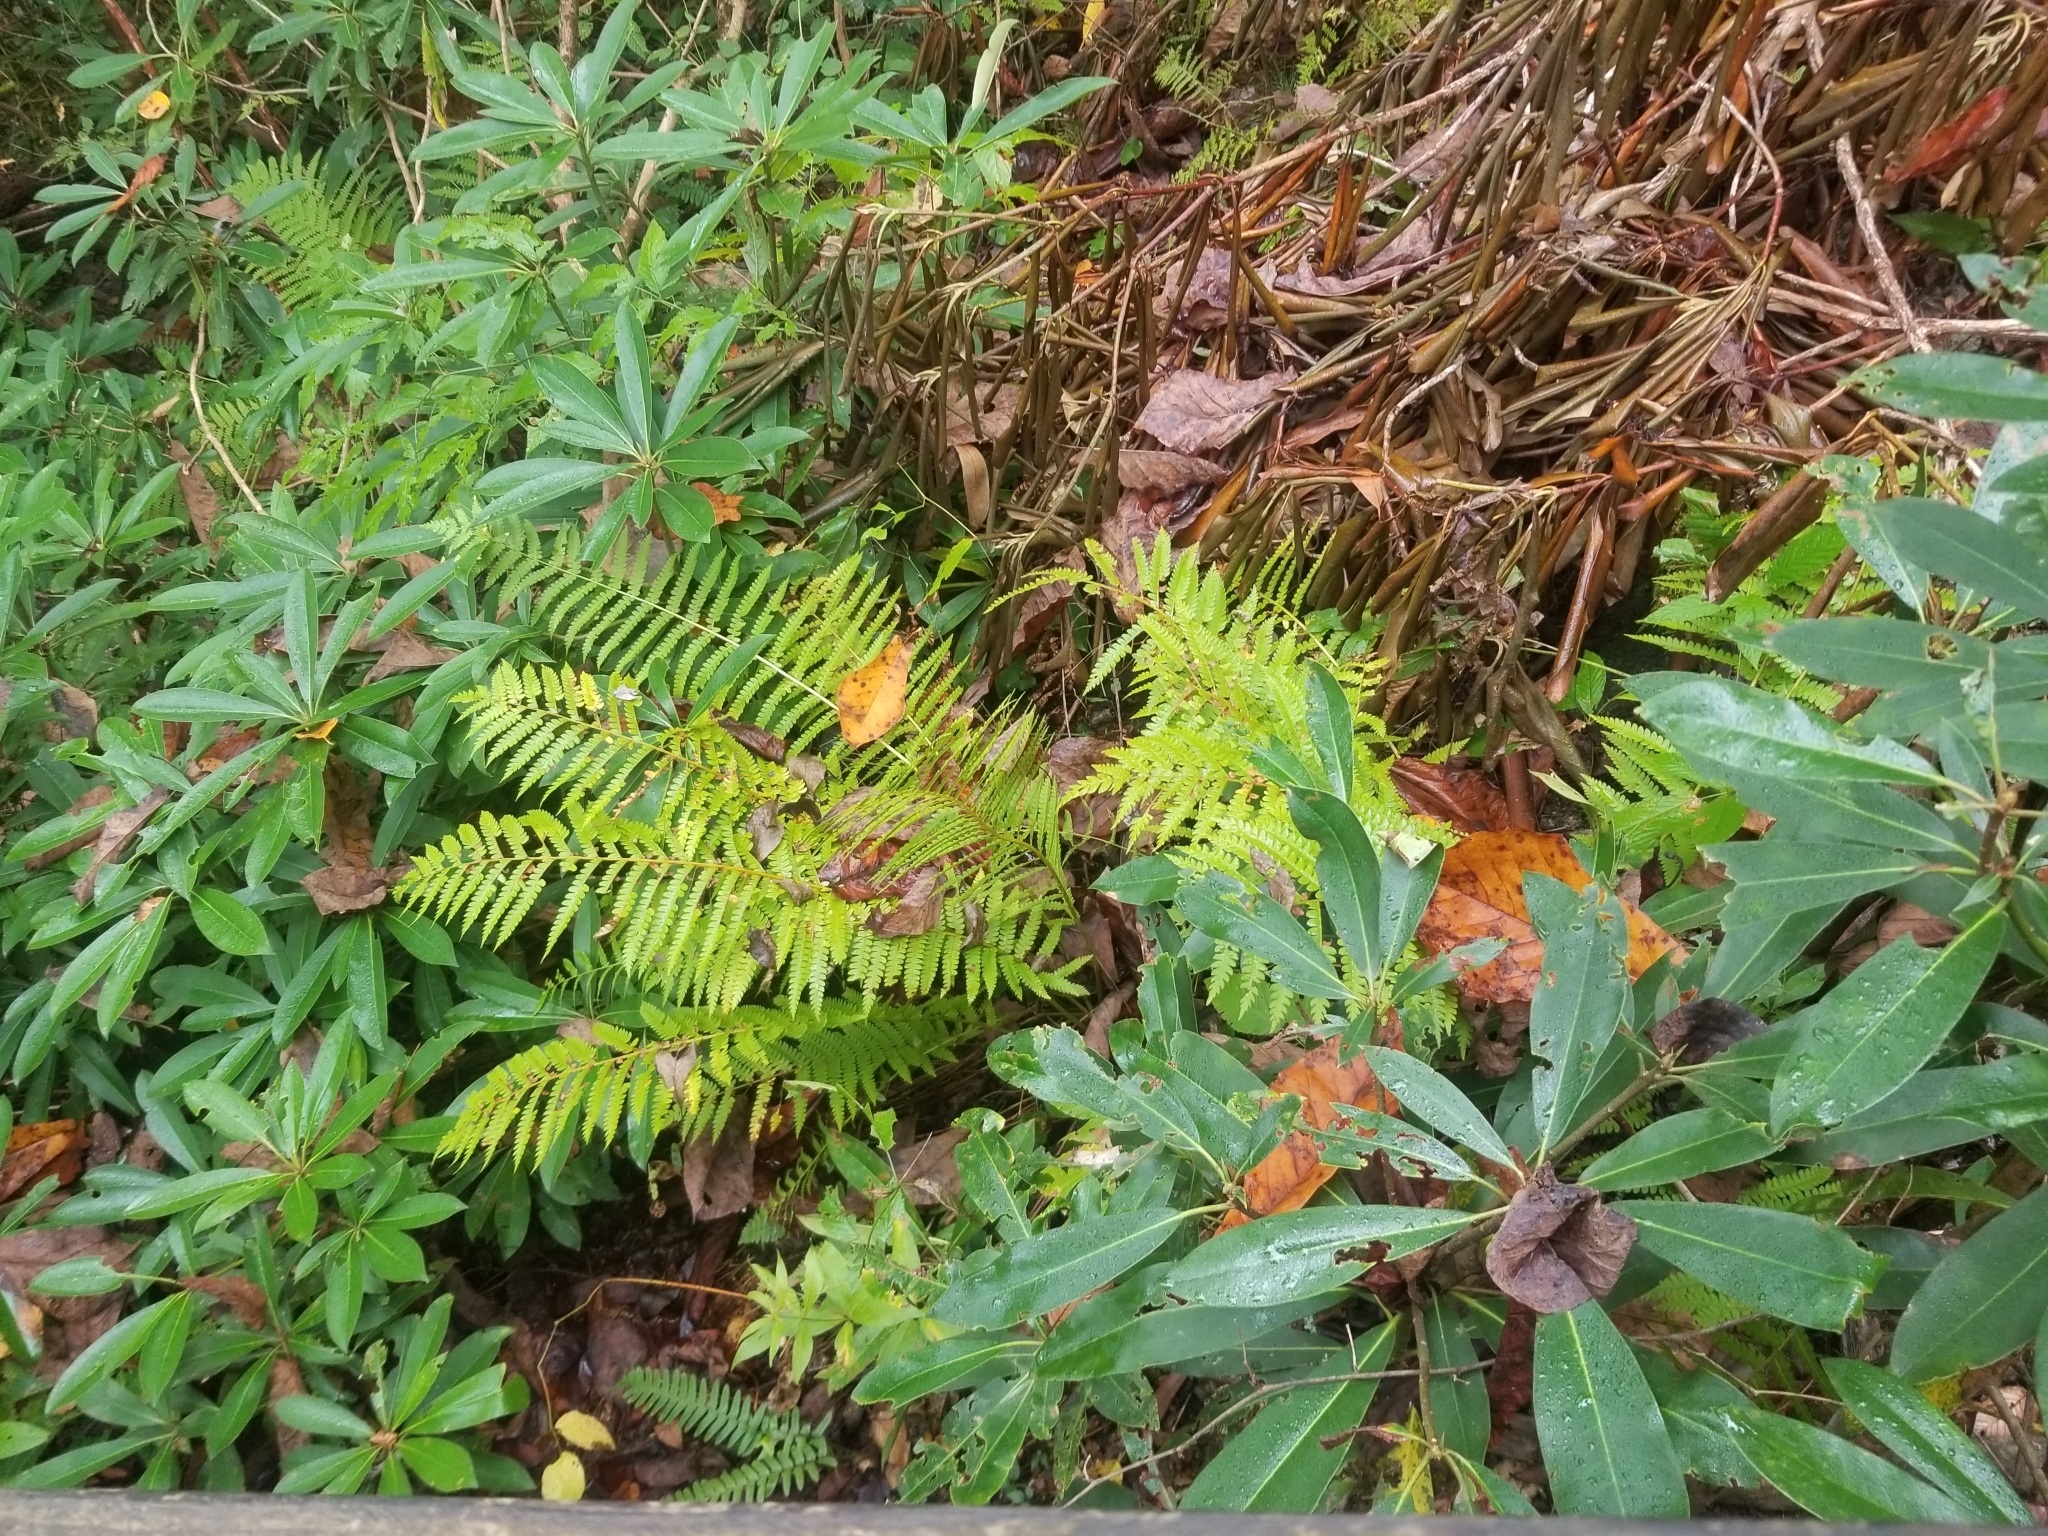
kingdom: Plantae
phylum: Tracheophyta
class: Polypodiopsida
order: Osmundales
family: Osmundaceae
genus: Osmundastrum
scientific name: Osmundastrum cinnamomeum
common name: Cinnamon fern
